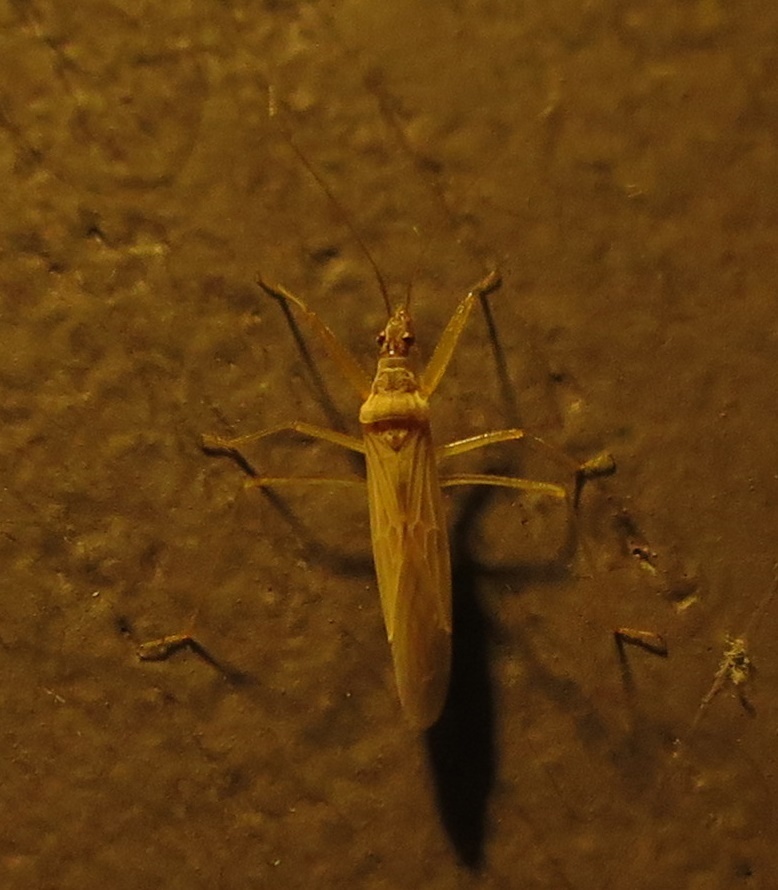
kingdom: Animalia
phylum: Arthropoda
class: Insecta
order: Hemiptera
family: Nabidae
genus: Nabis
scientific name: Nabis kinbergii
